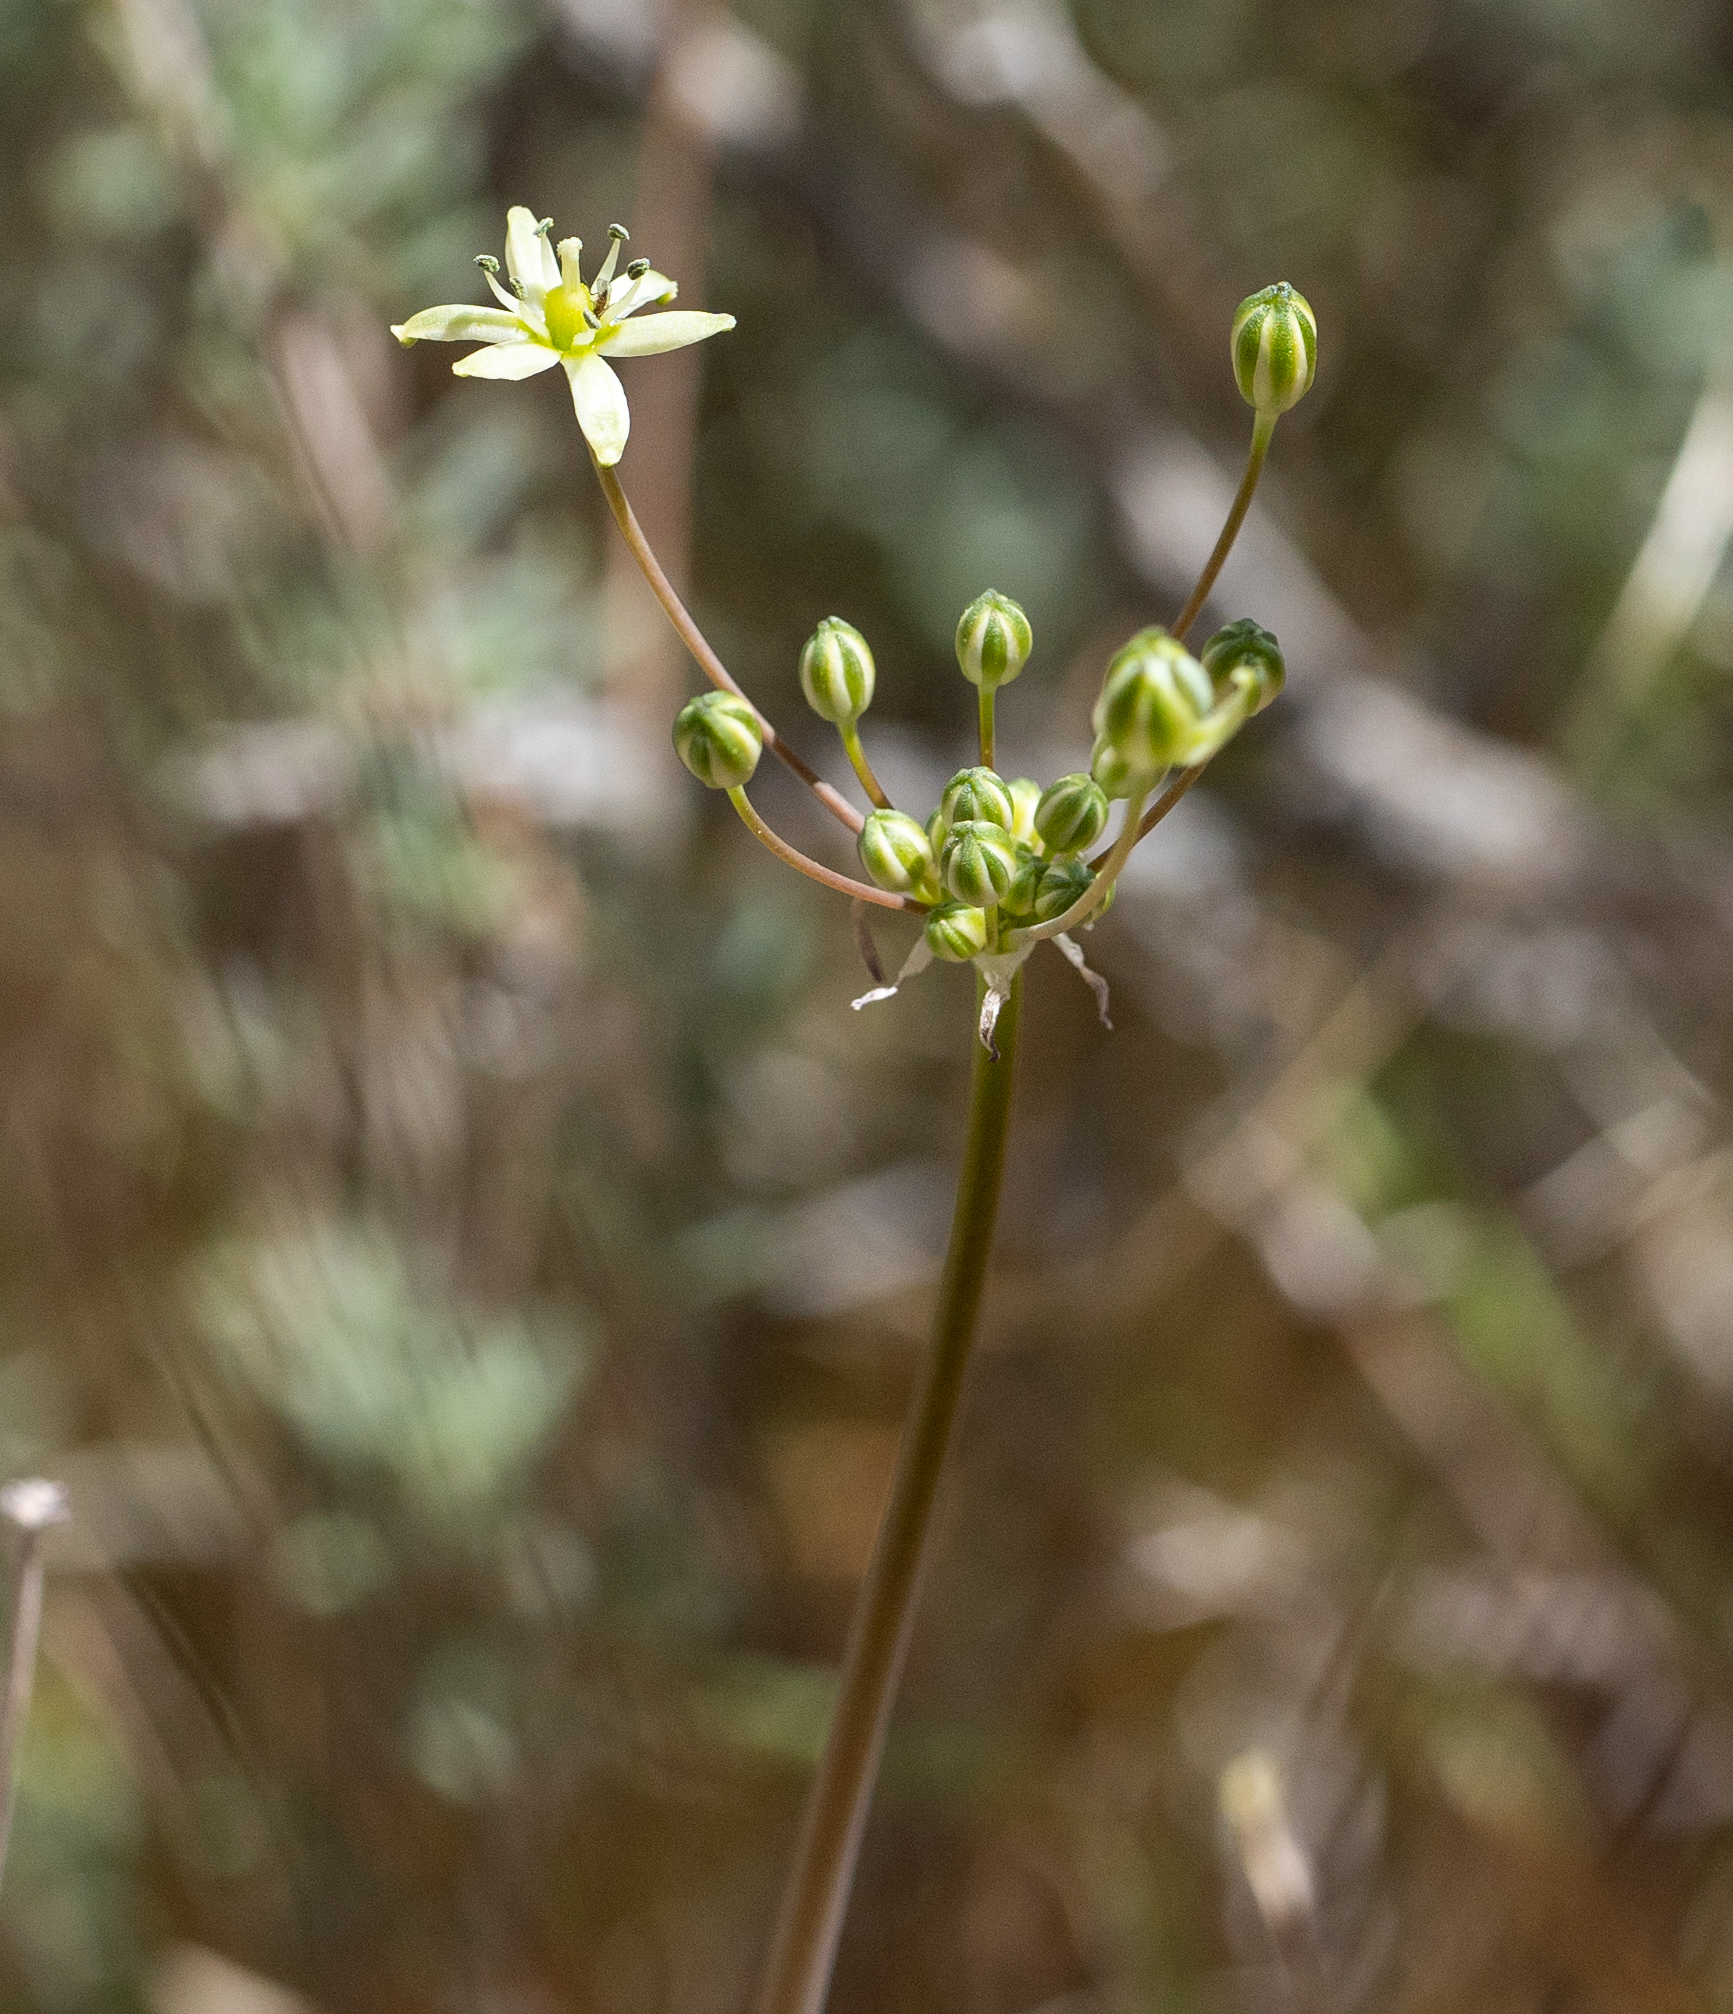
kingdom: Plantae
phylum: Tracheophyta
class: Liliopsida
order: Asparagales
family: Asparagaceae
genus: Muilla
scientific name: Muilla maritima
